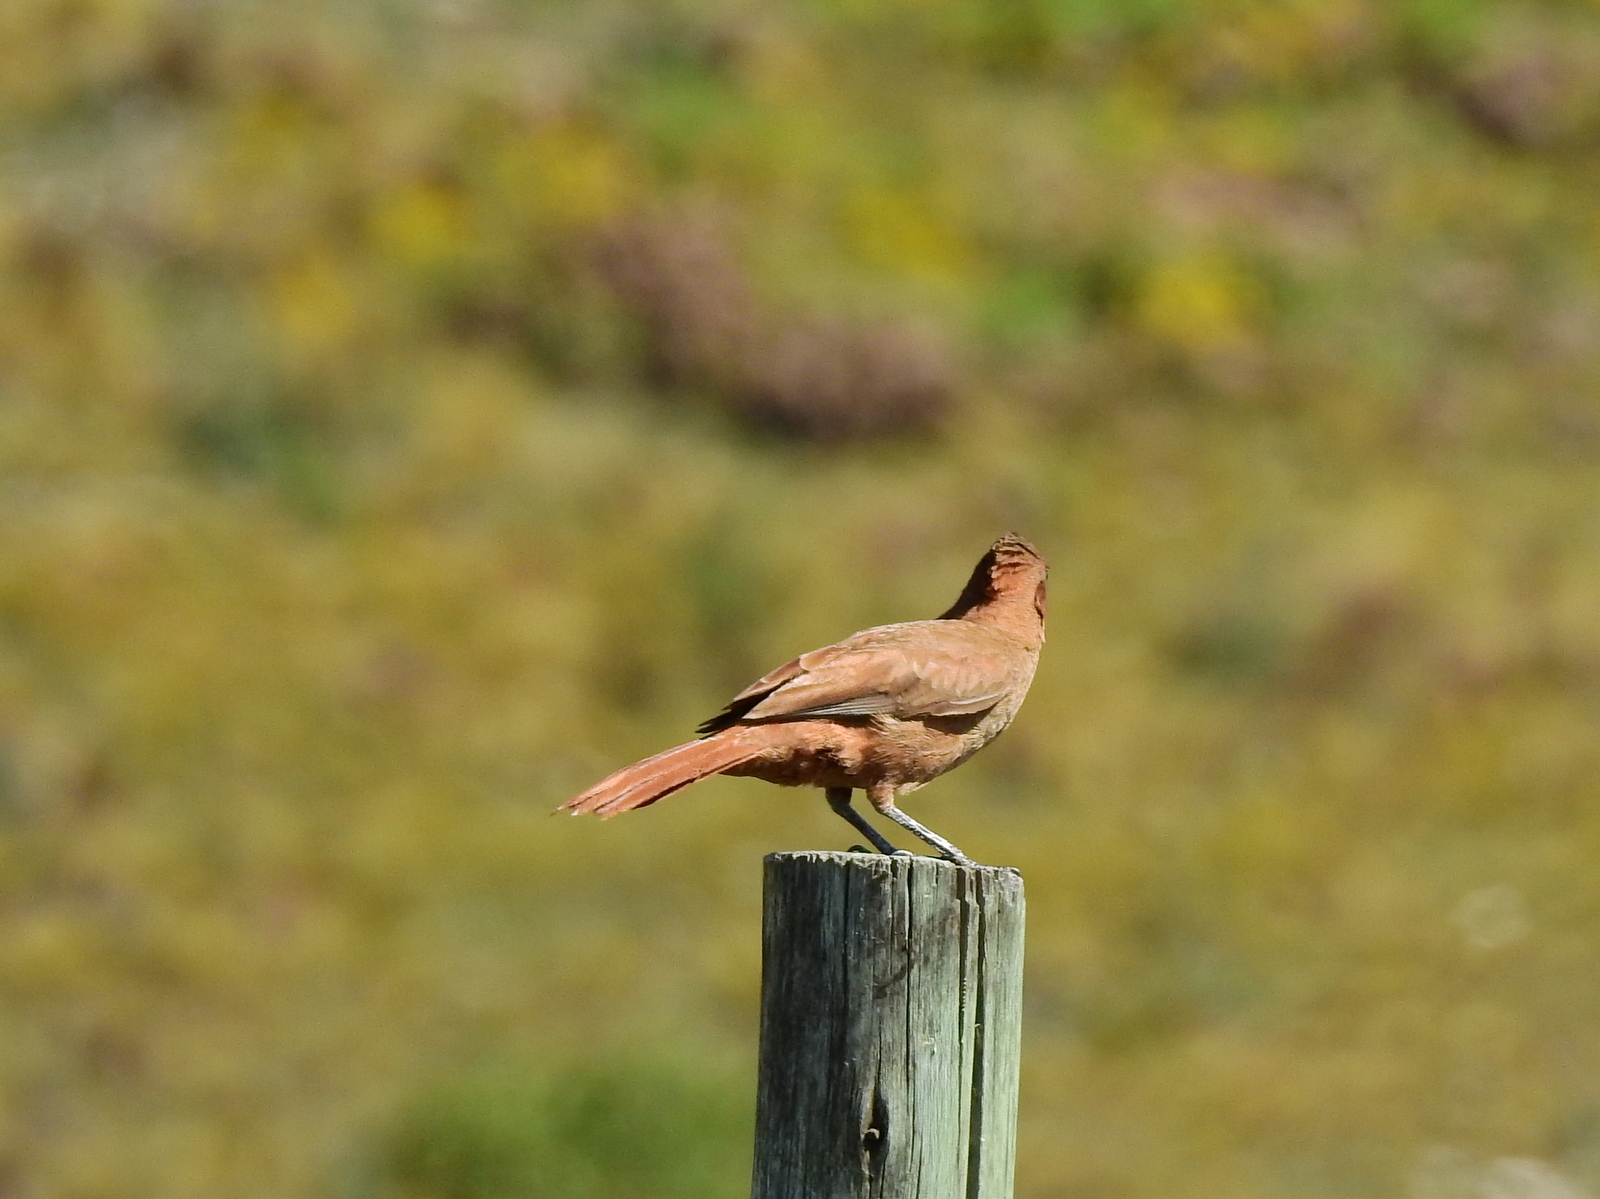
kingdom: Animalia
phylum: Chordata
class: Aves
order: Passeriformes
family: Furnariidae
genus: Pseudoseisura
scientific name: Pseudoseisura lophotes
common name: Brown cacholote
